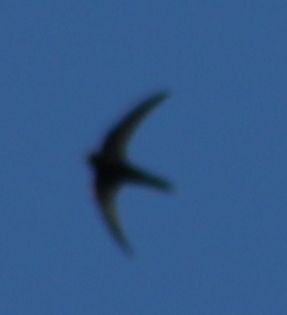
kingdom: Animalia
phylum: Chordata
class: Aves
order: Apodiformes
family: Apodidae
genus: Apus
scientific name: Apus apus
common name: Common swift
